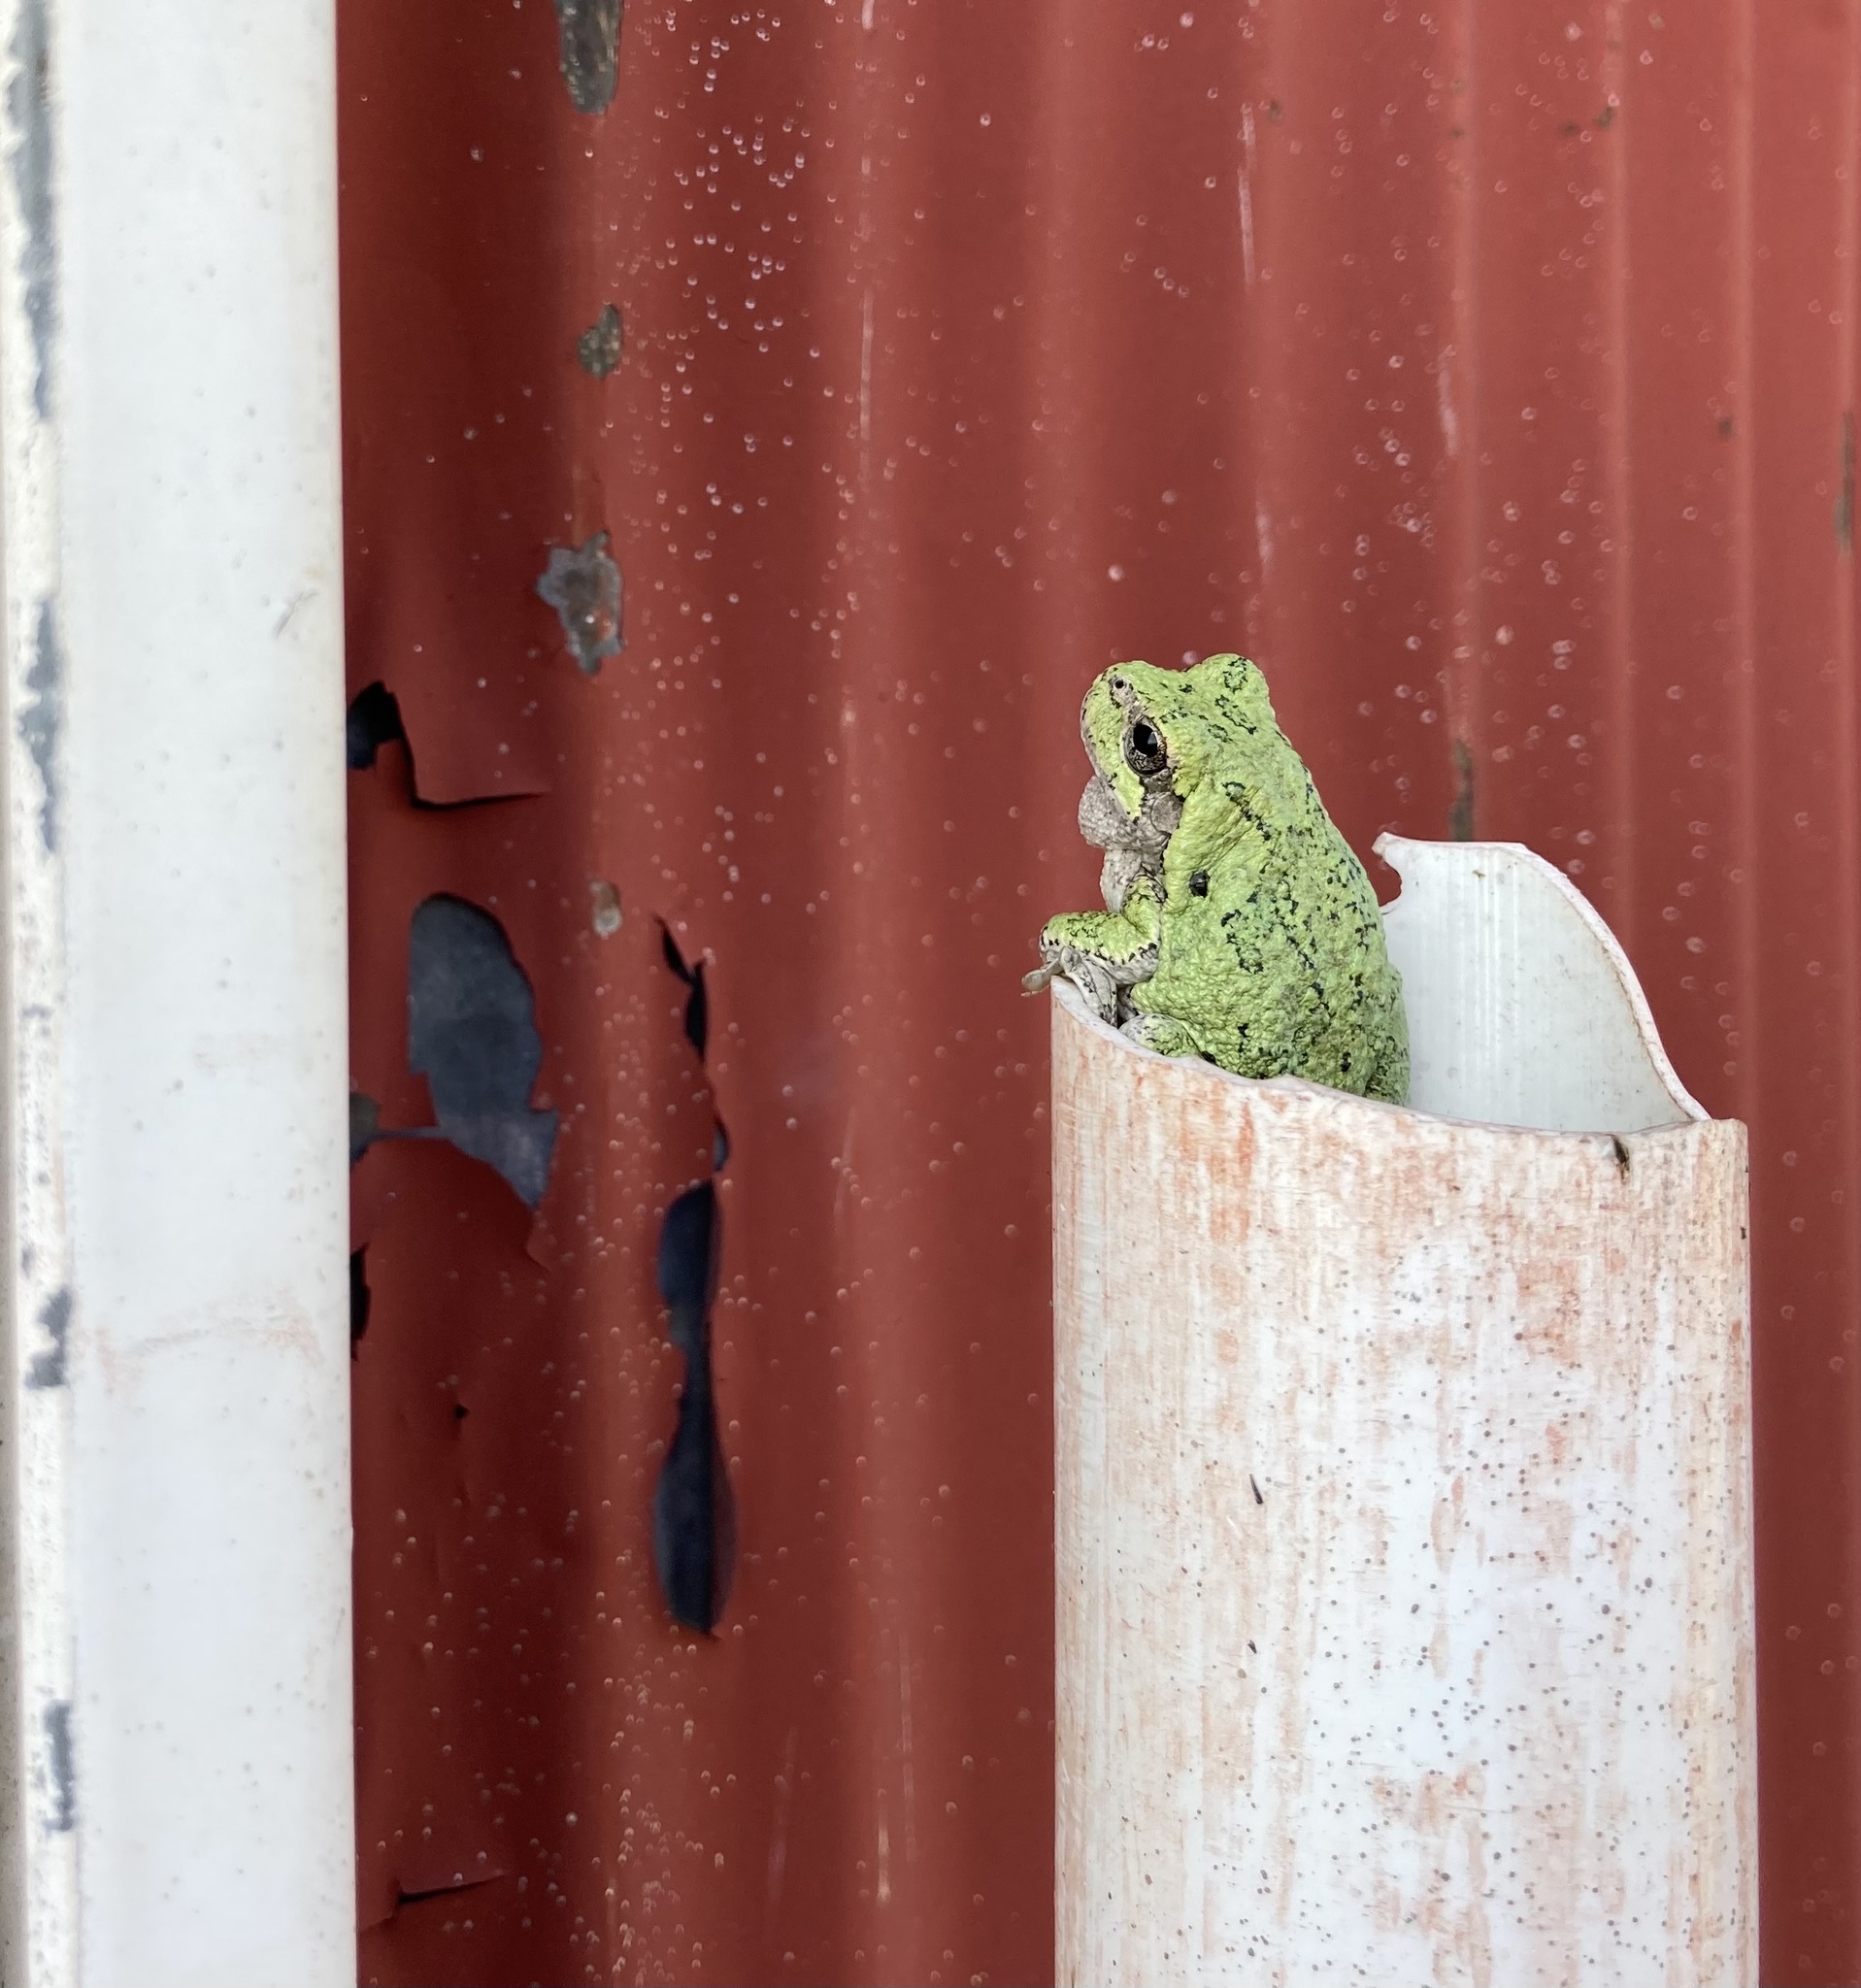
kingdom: Animalia
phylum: Chordata
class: Amphibia
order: Anura
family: Hylidae
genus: Hyla
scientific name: Hyla
